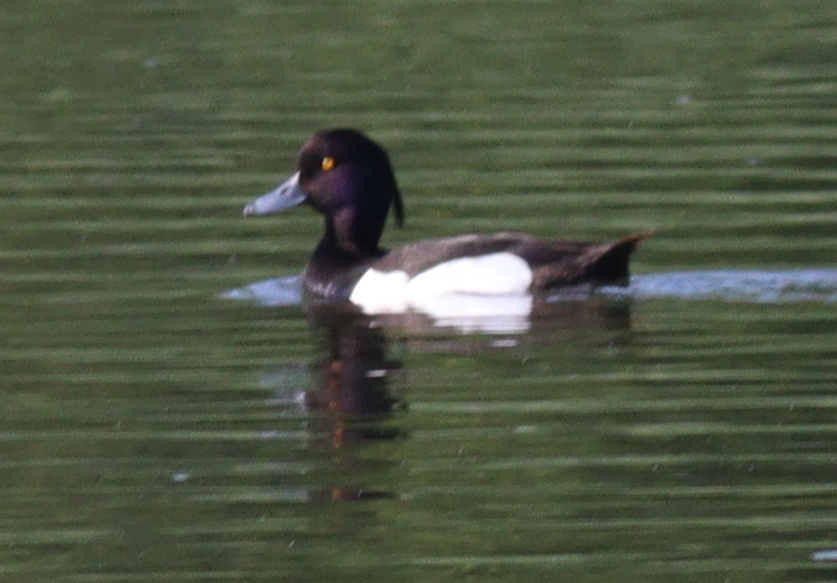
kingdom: Animalia
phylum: Chordata
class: Aves
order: Anseriformes
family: Anatidae
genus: Aythya
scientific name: Aythya fuligula
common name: Tufted duck
